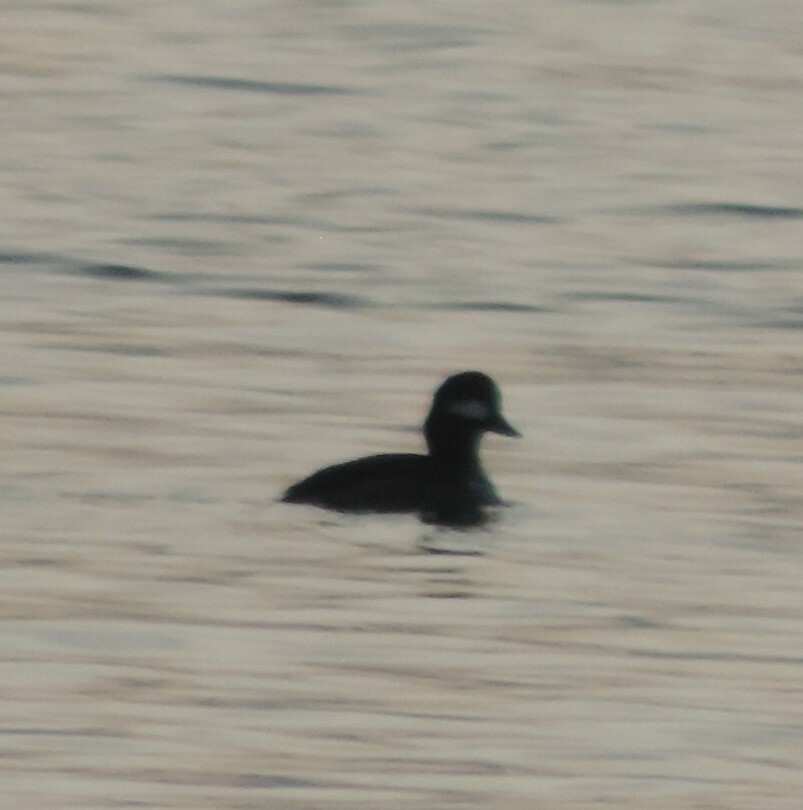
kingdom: Animalia
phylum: Chordata
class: Aves
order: Anseriformes
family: Anatidae
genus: Bucephala
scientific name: Bucephala albeola
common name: Bufflehead
